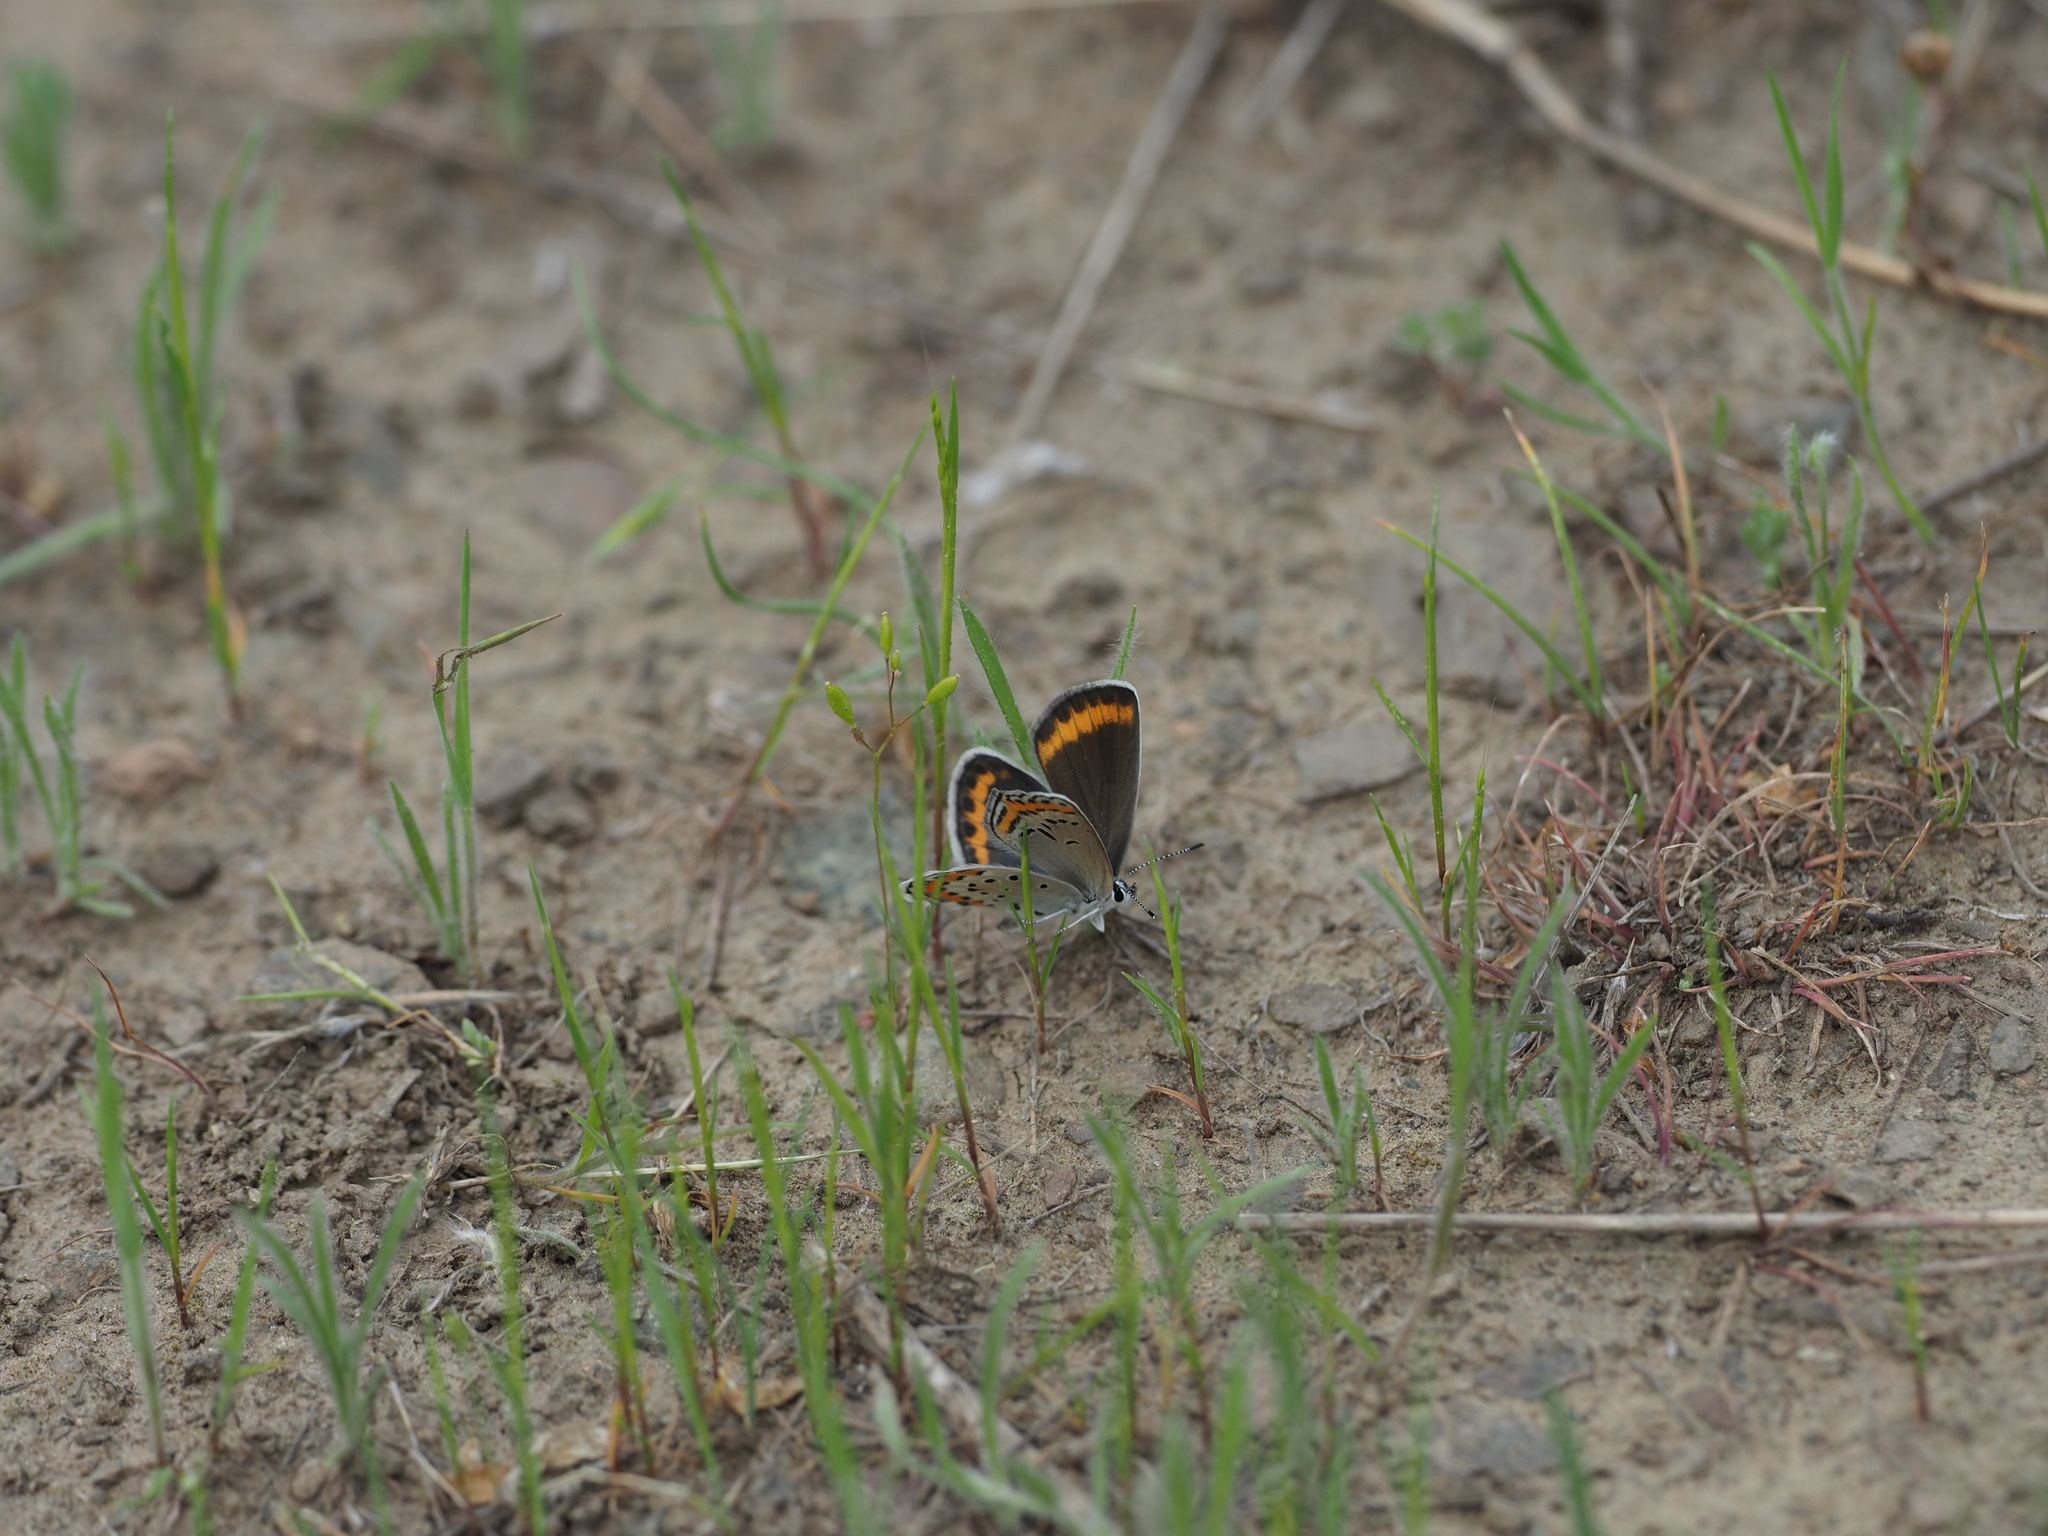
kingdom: Animalia
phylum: Arthropoda
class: Insecta
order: Lepidoptera
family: Lycaenidae
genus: Lycaeides
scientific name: Lycaeides melissa
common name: Melissa blue
